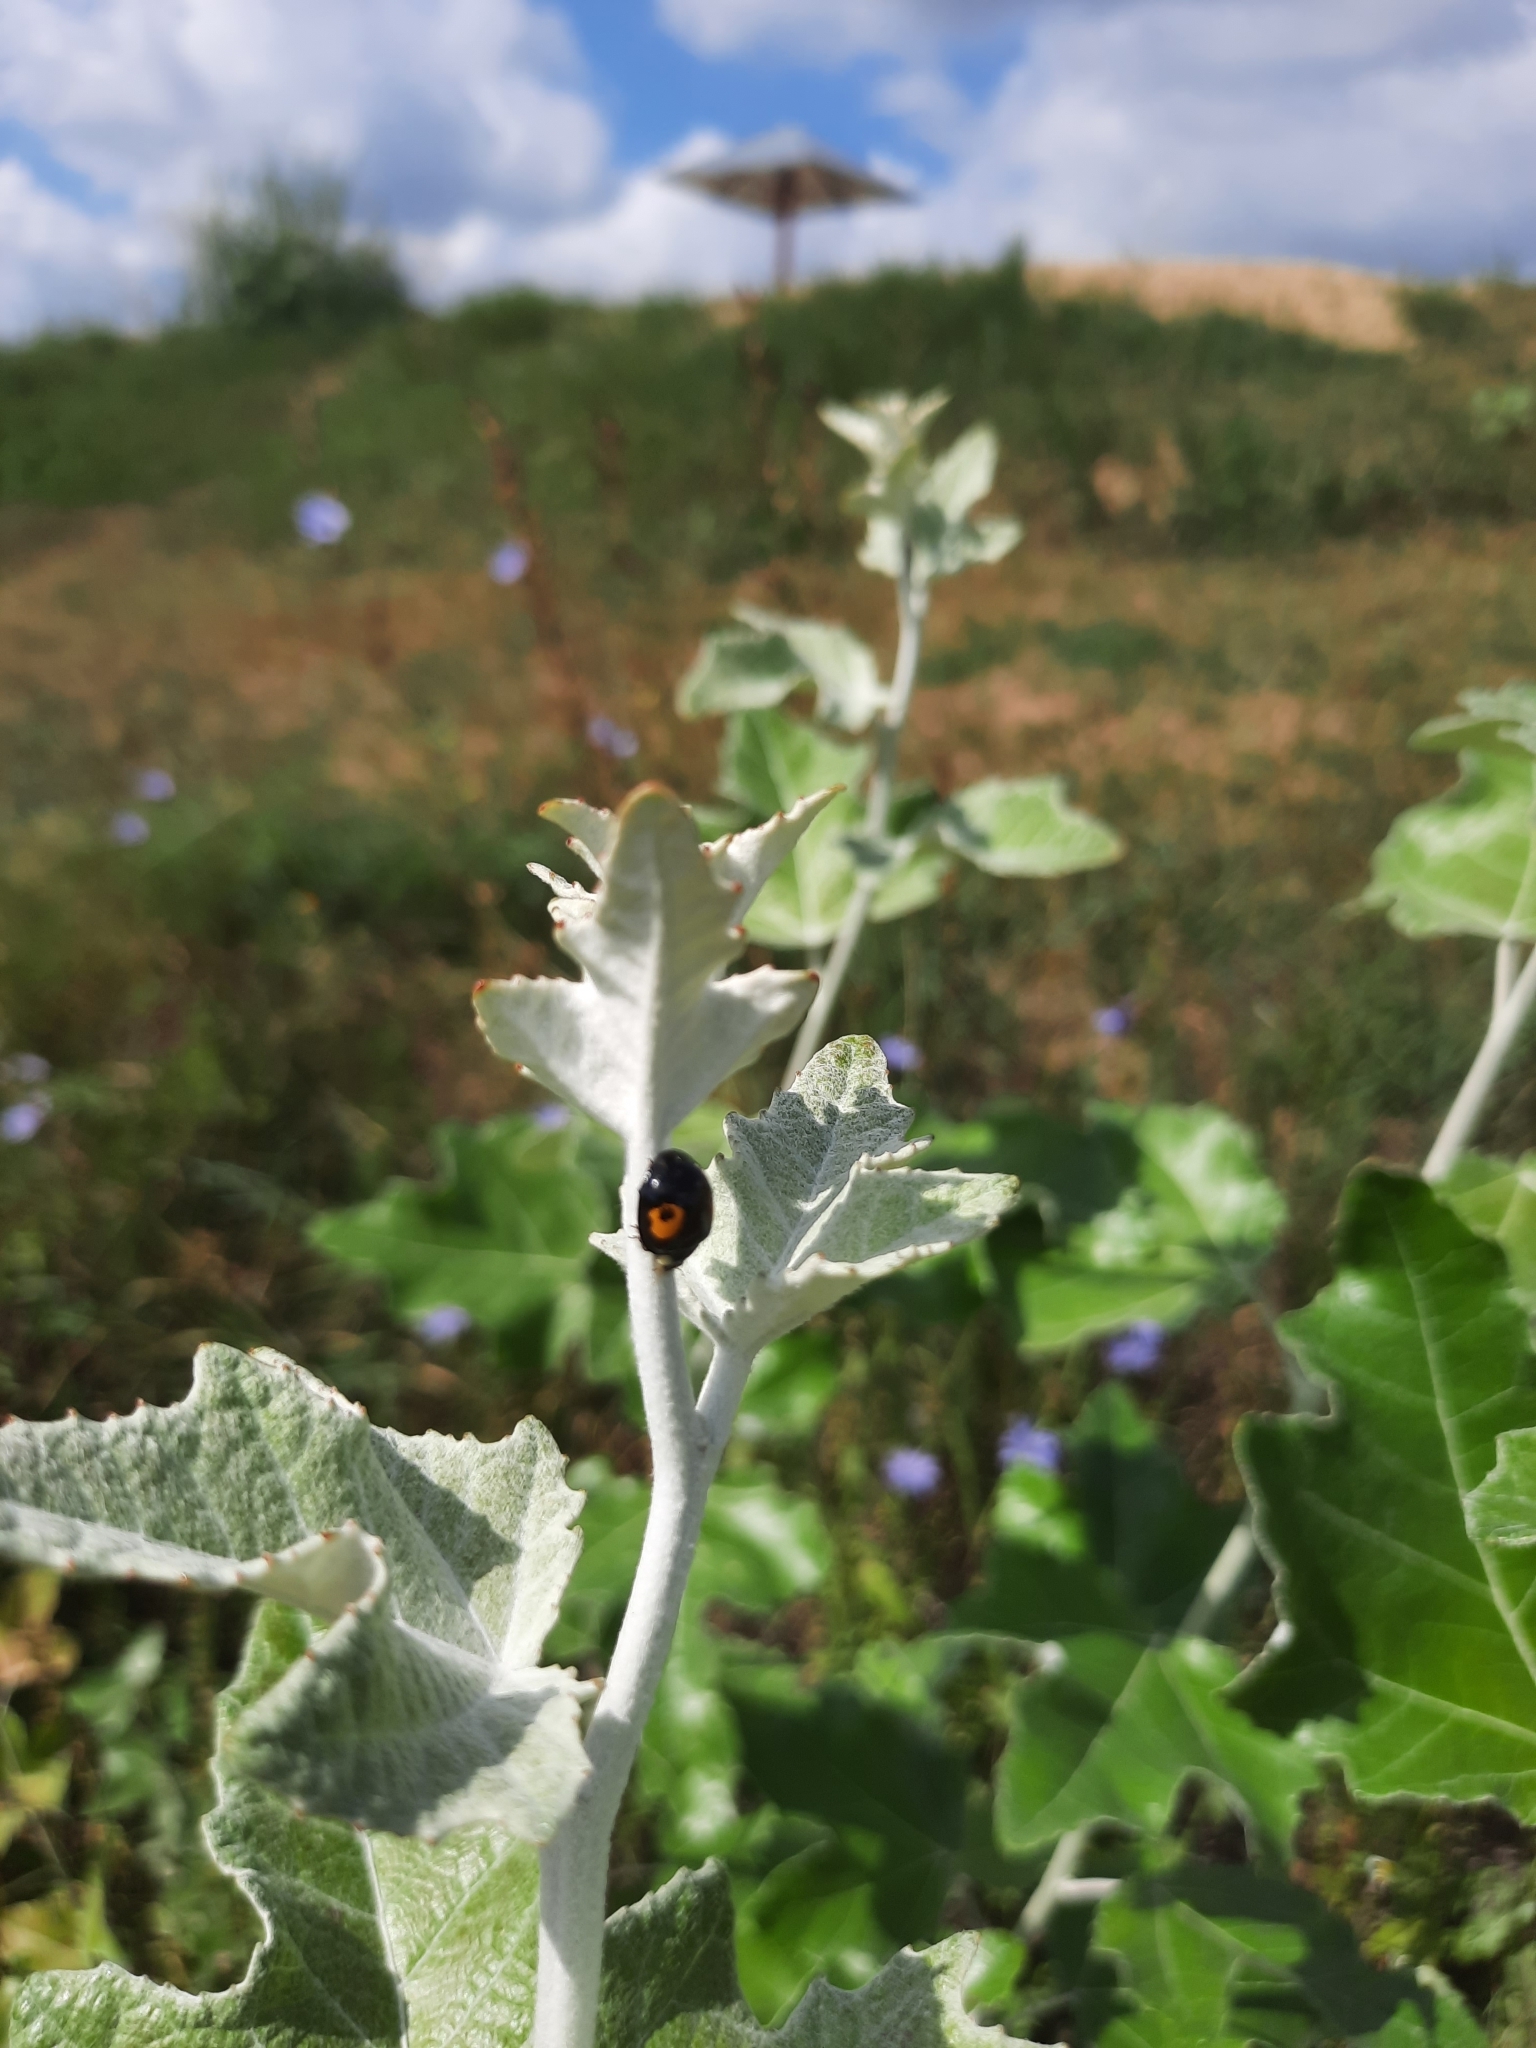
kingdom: Animalia
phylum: Arthropoda
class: Insecta
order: Coleoptera
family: Coccinellidae
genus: Harmonia
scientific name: Harmonia axyridis
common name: Harlequin ladybird
